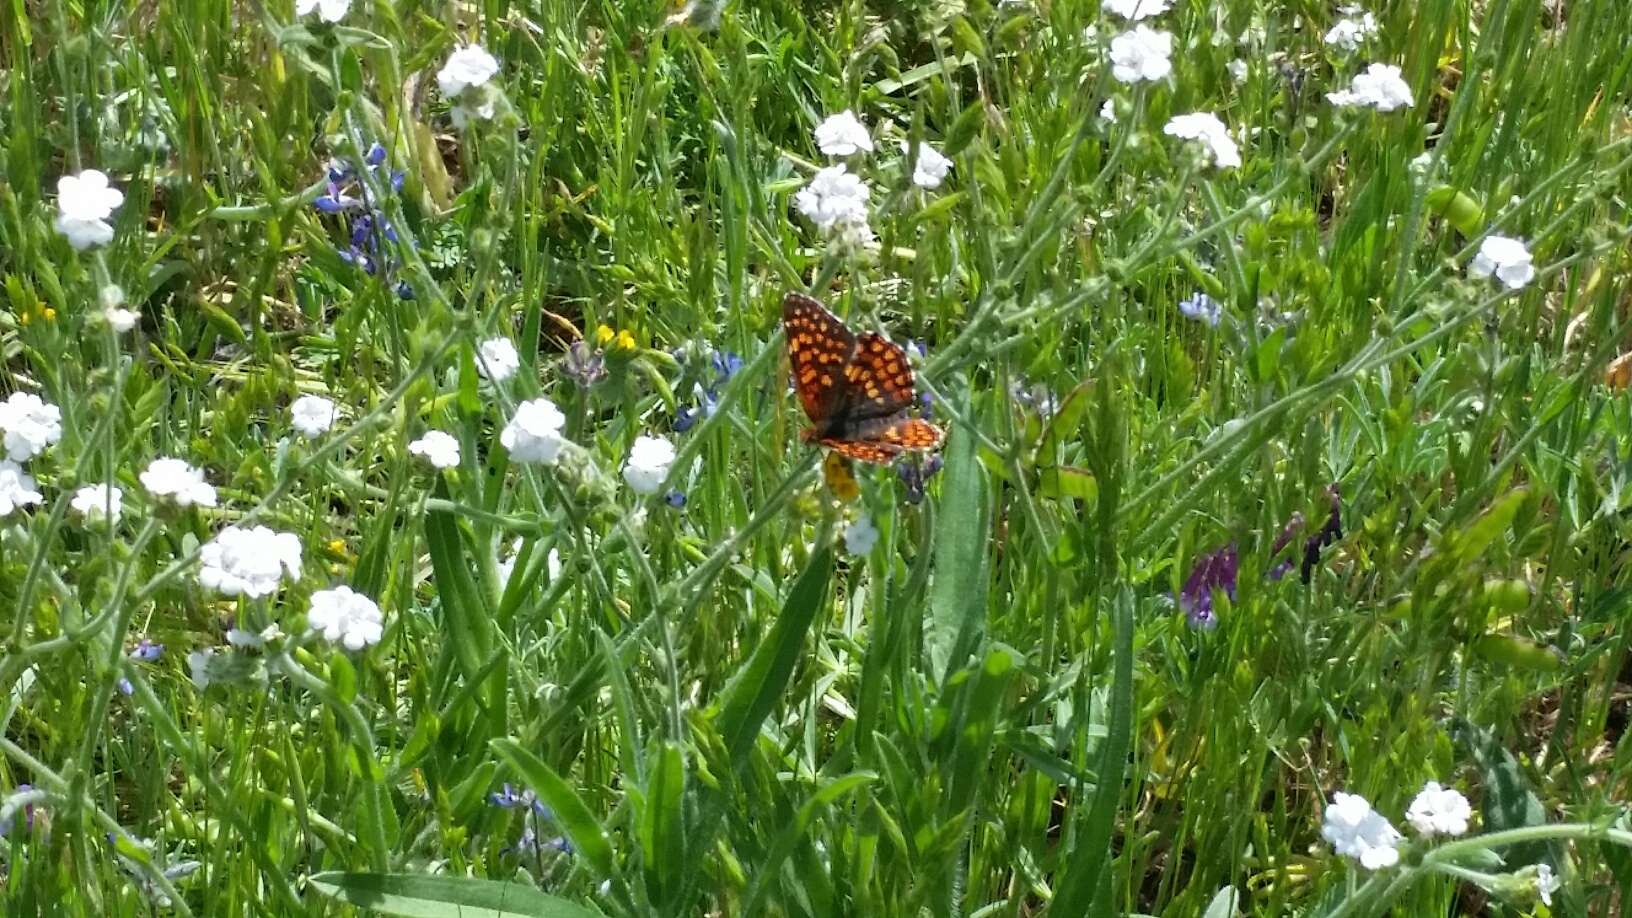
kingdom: Animalia
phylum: Arthropoda
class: Insecta
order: Lepidoptera
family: Nymphalidae
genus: Chlosyne
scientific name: Chlosyne palla
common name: Northern checkerspot
